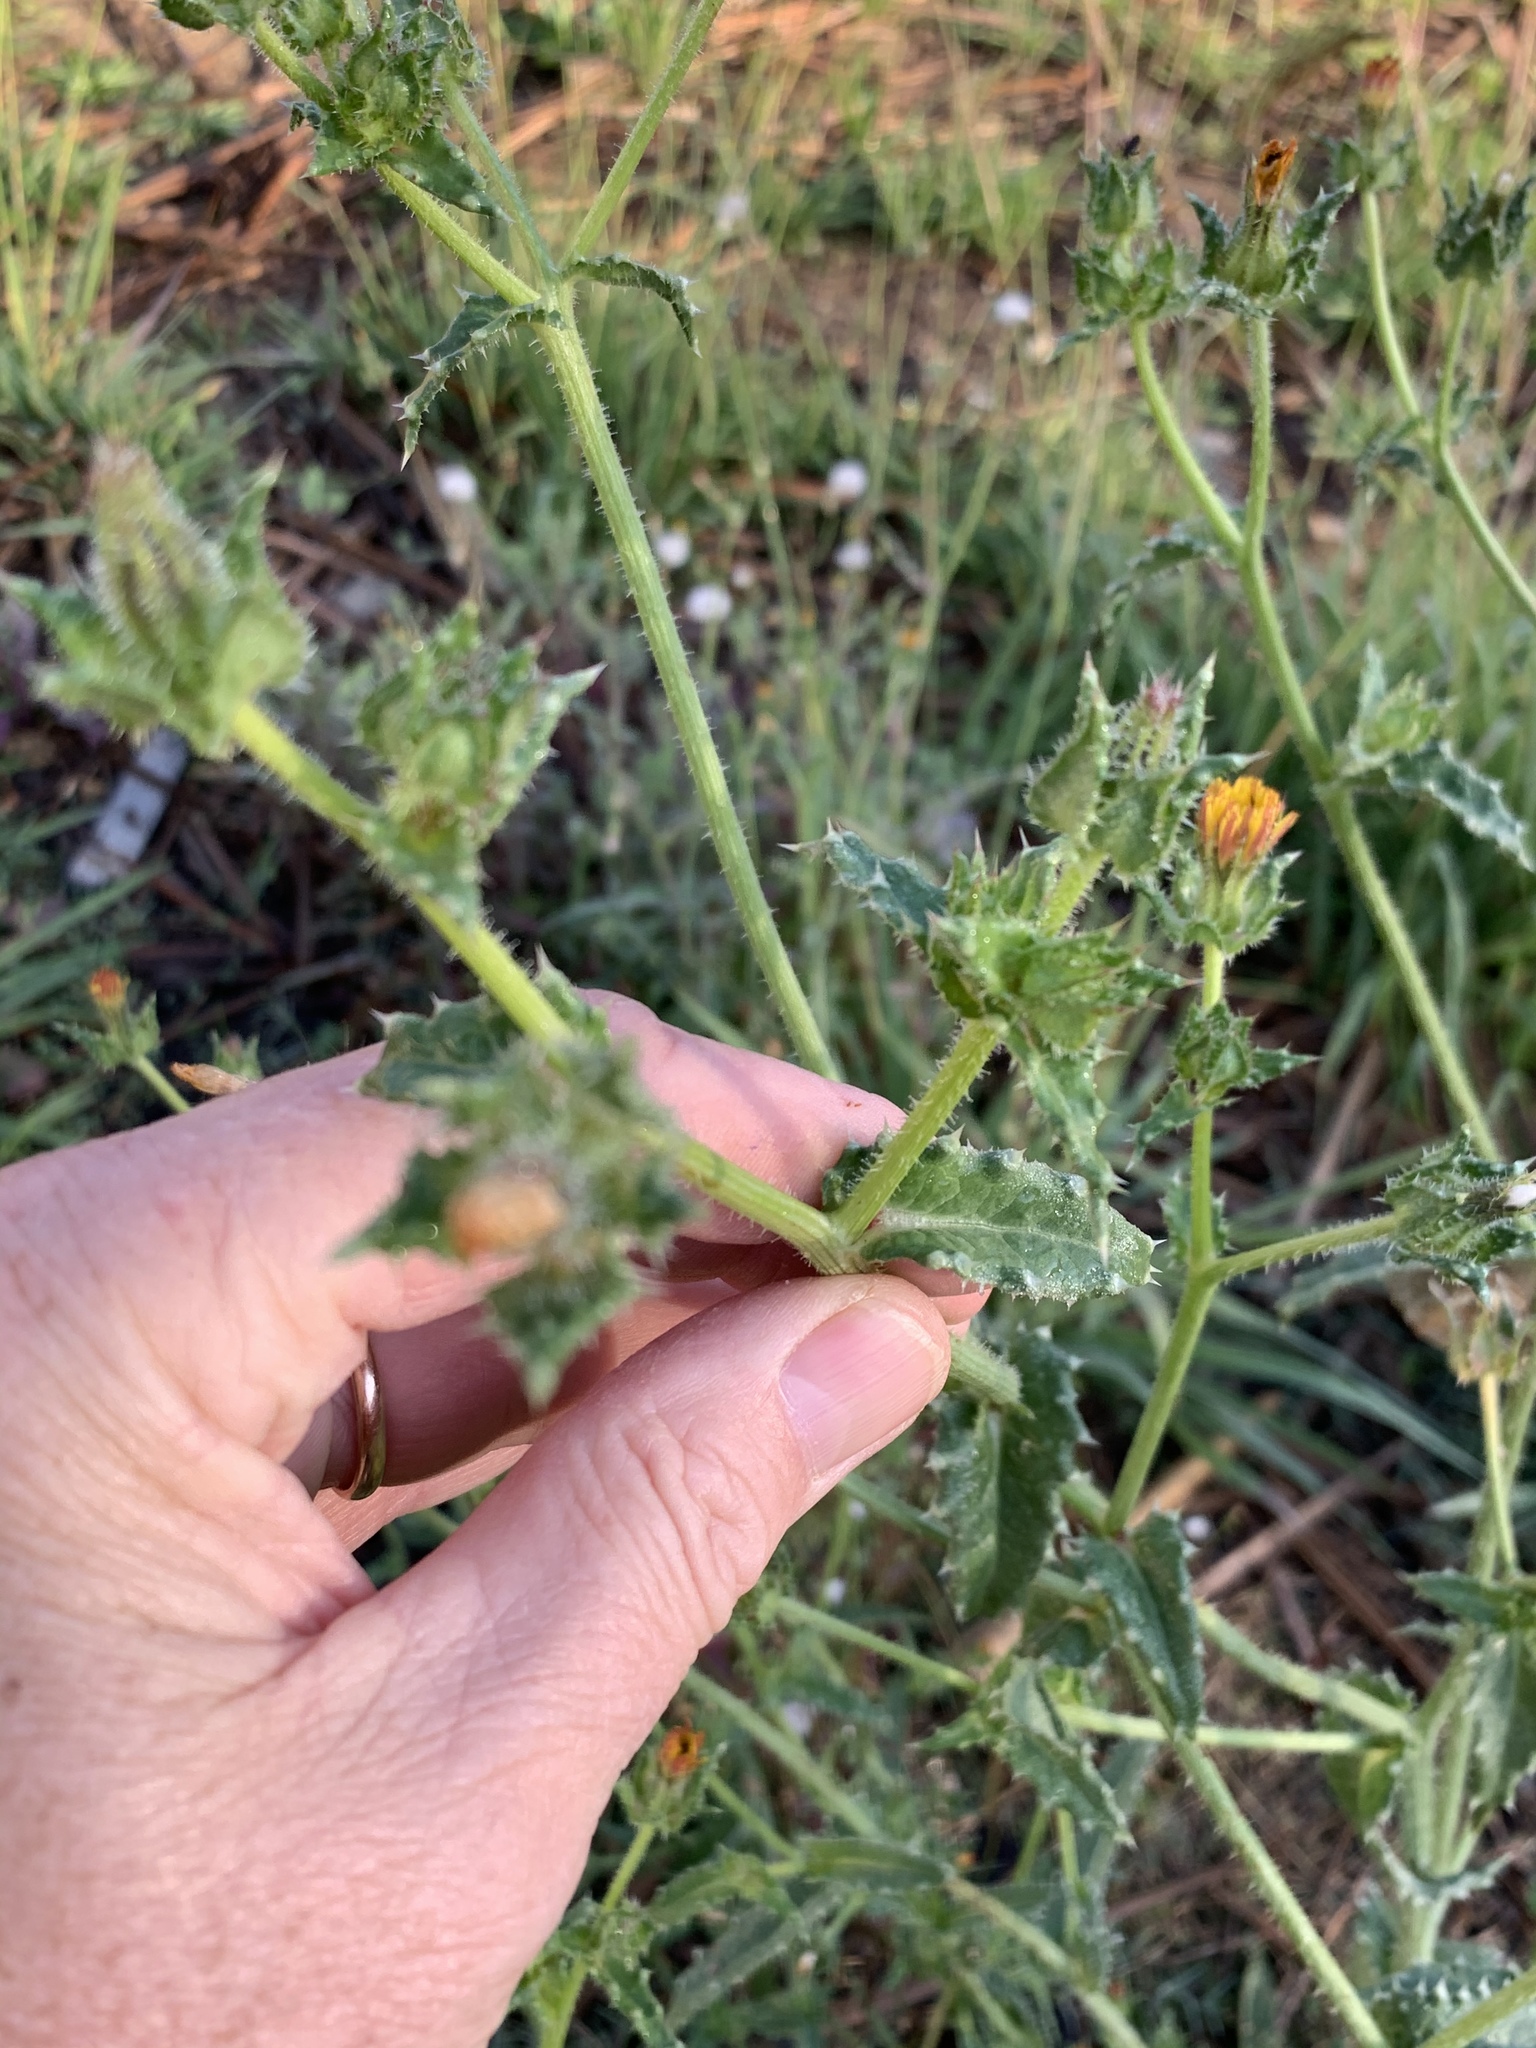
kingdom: Plantae
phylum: Tracheophyta
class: Magnoliopsida
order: Asterales
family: Asteraceae
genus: Helminthotheca
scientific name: Helminthotheca echioides
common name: Ox-tongue
